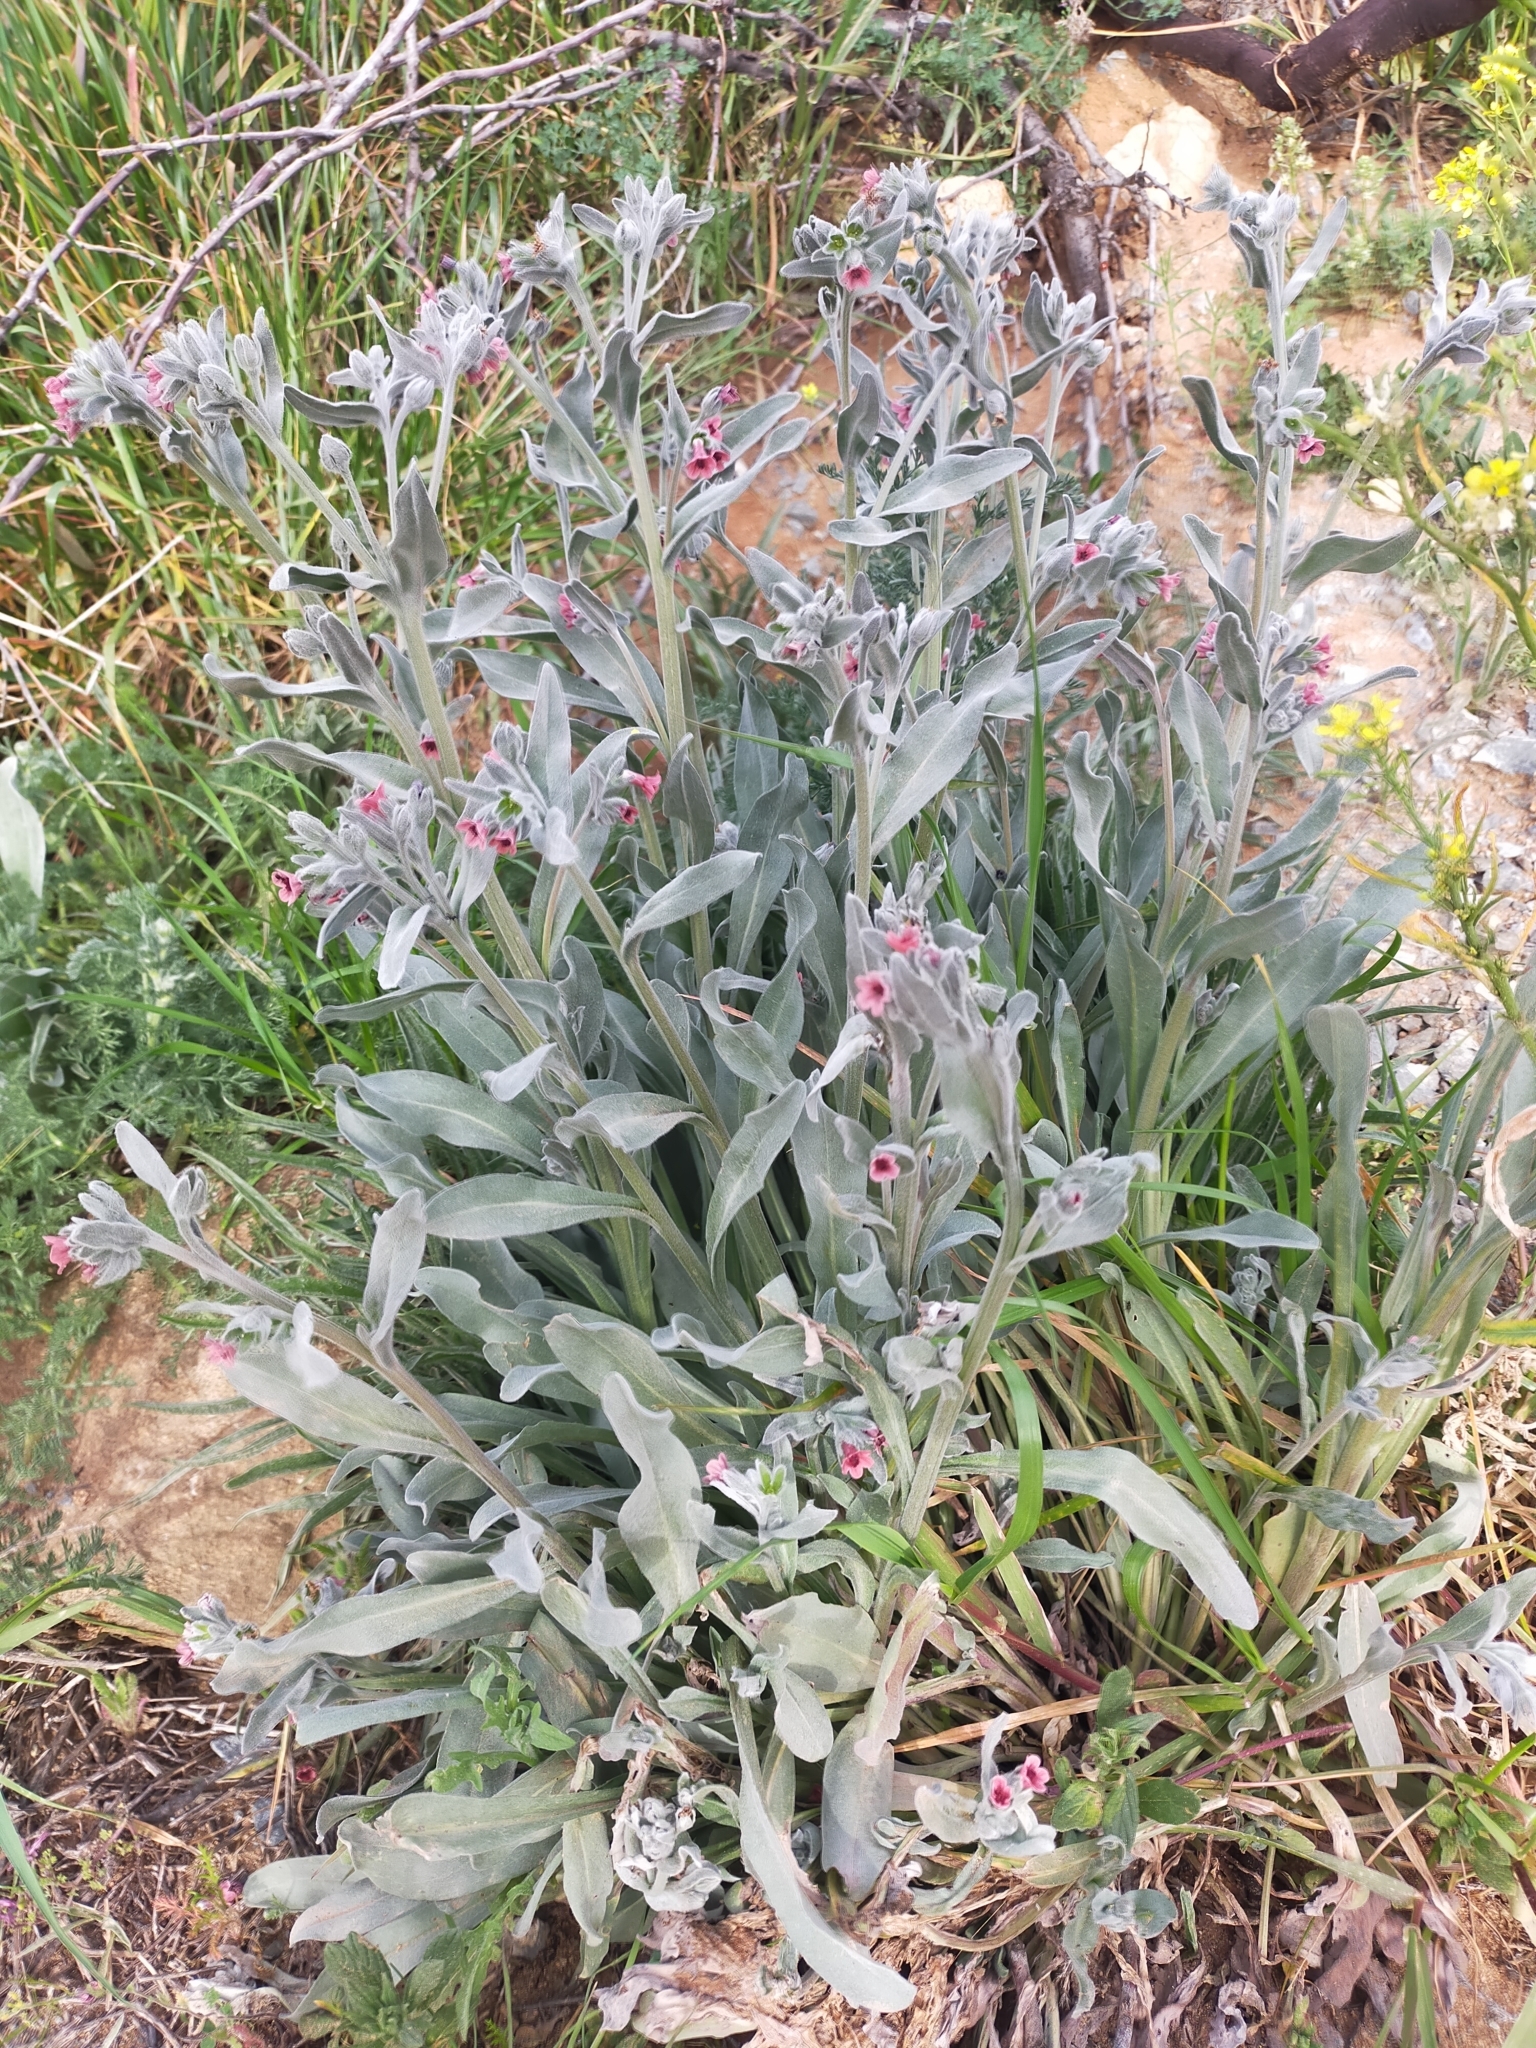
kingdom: Plantae
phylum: Tracheophyta
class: Magnoliopsida
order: Boraginales
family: Boraginaceae
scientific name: Boraginaceae
